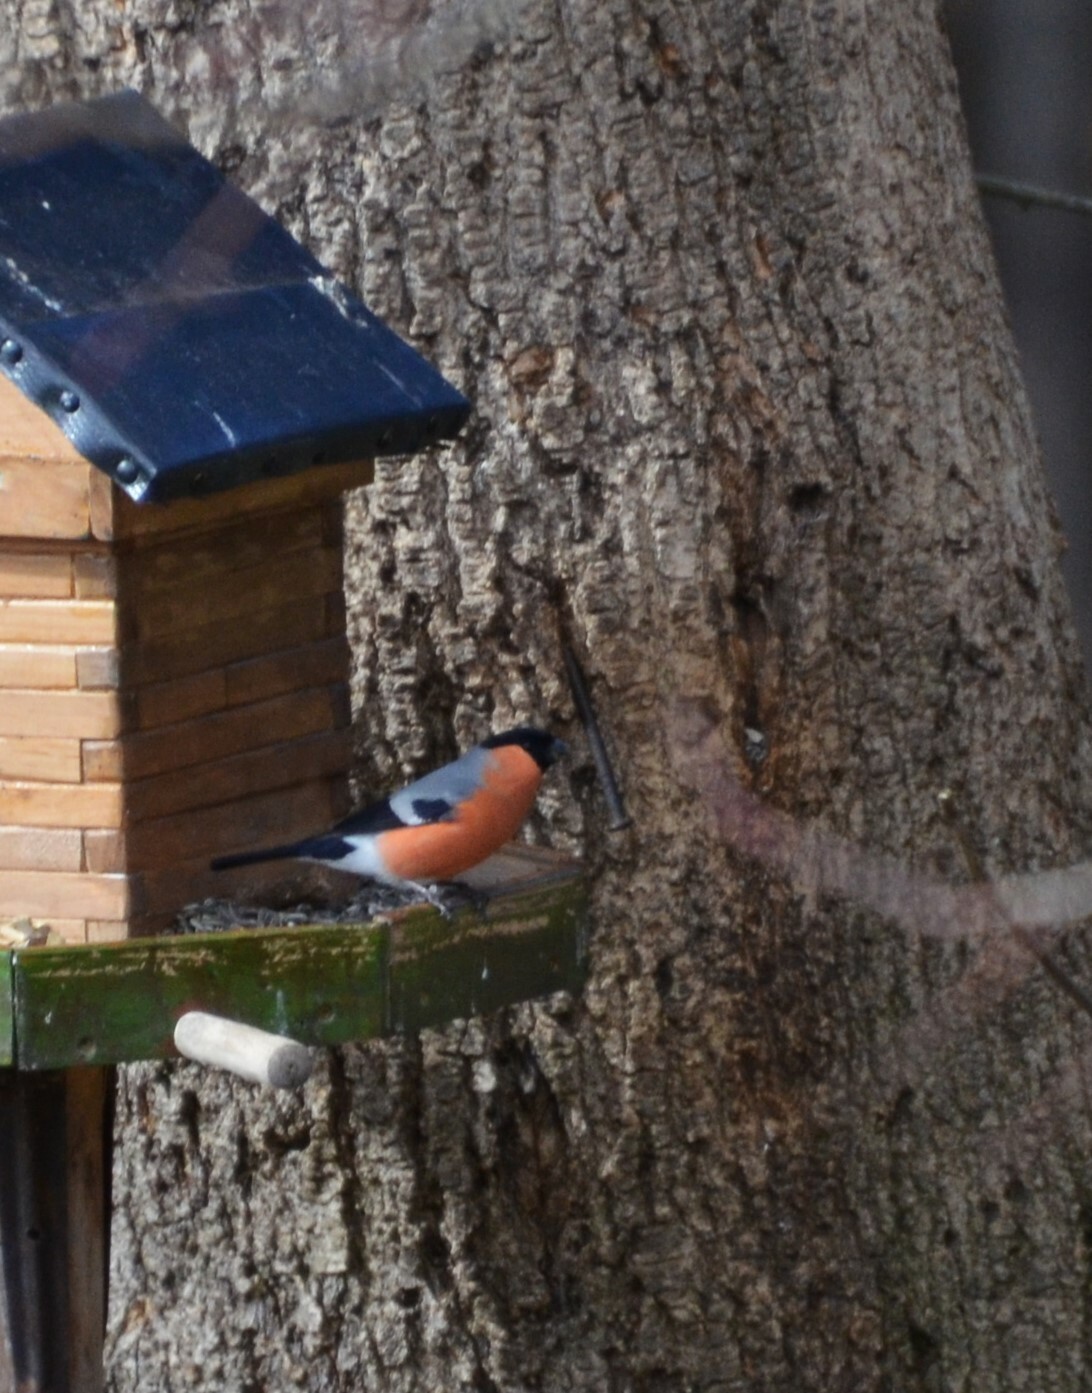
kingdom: Animalia
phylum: Chordata
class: Aves
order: Passeriformes
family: Fringillidae
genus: Pyrrhula
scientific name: Pyrrhula pyrrhula
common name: Eurasian bullfinch
